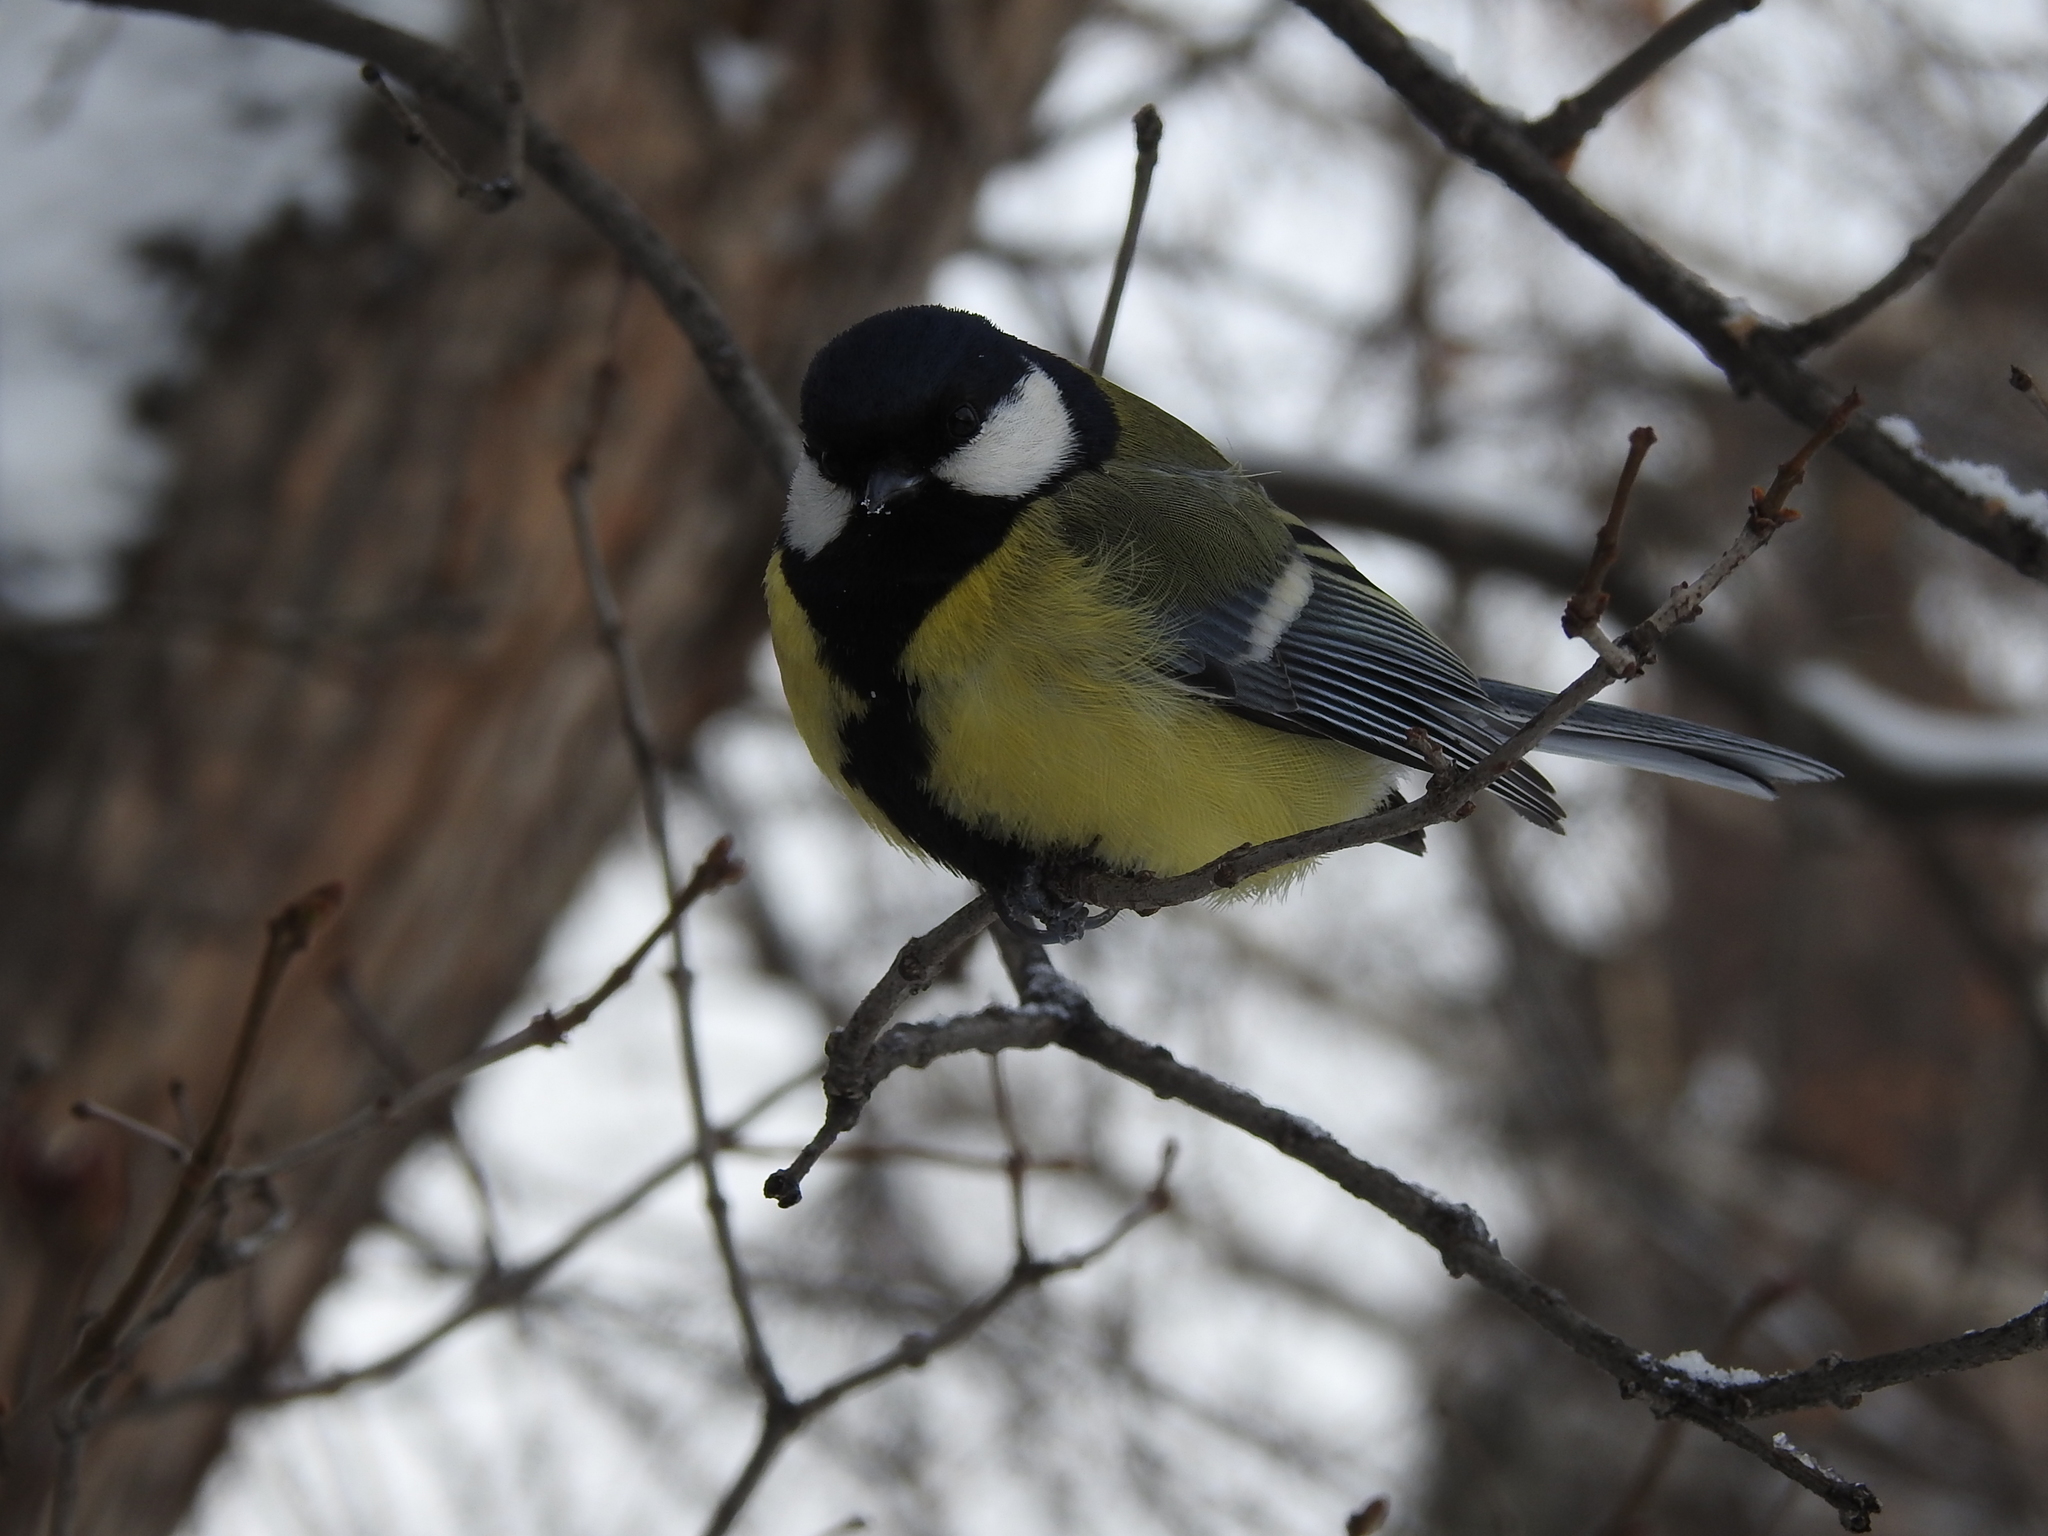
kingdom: Animalia
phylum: Chordata
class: Aves
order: Passeriformes
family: Paridae
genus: Parus
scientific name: Parus major
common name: Great tit
